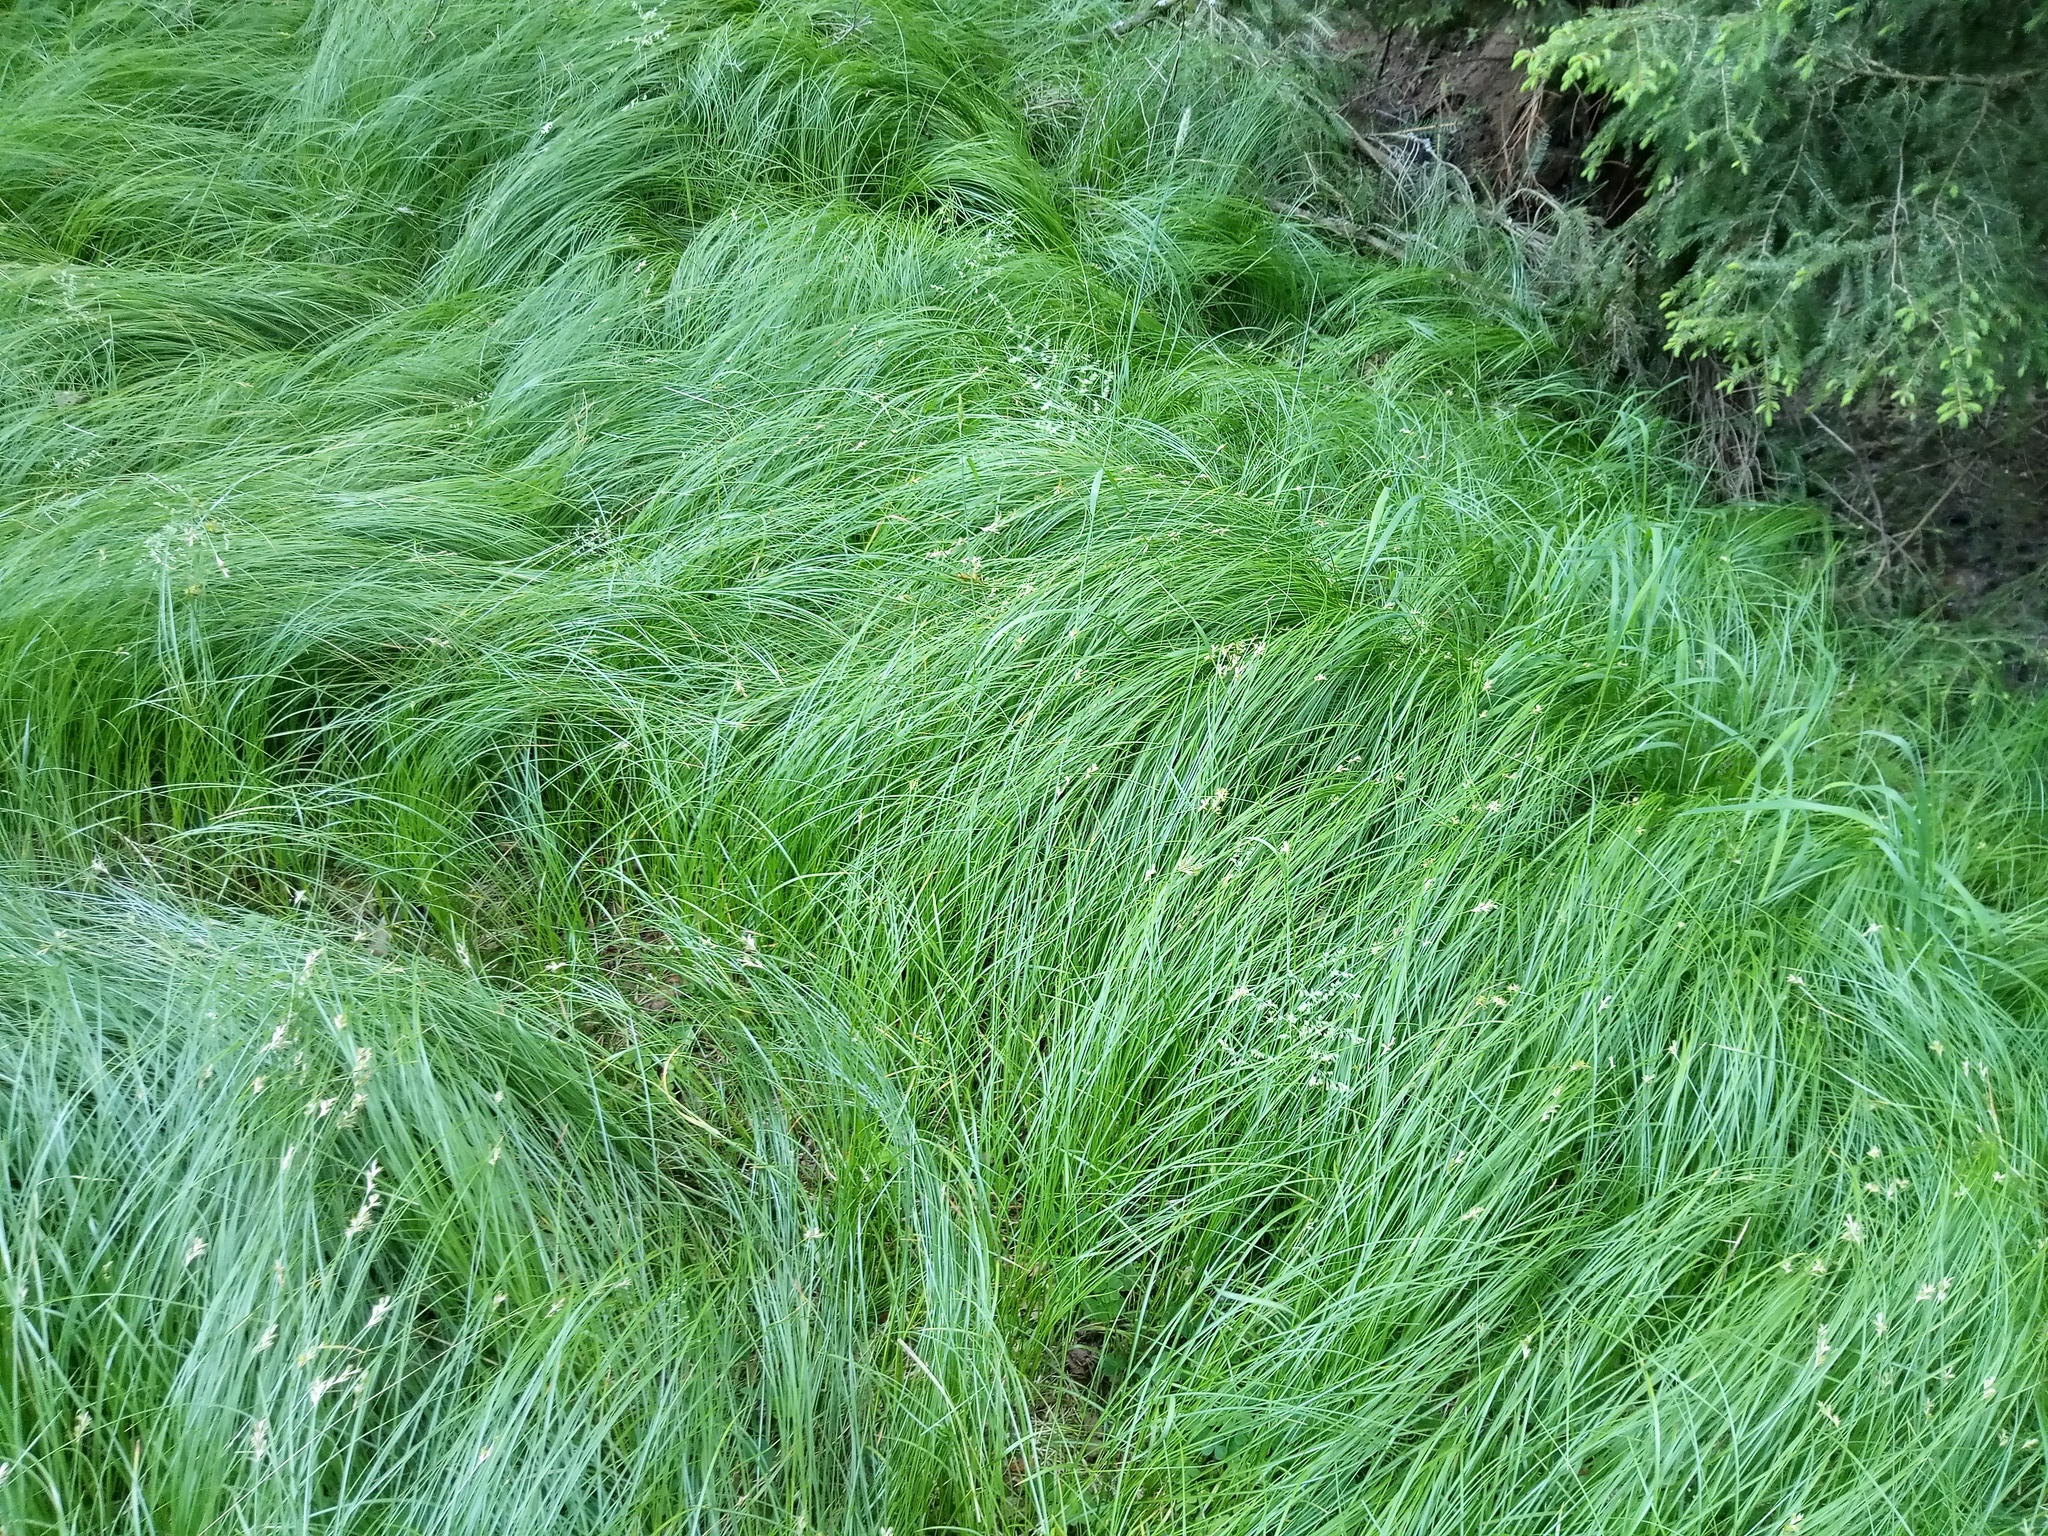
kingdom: Plantae
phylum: Tracheophyta
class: Liliopsida
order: Poales
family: Cyperaceae
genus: Carex
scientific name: Carex brizoides
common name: Quaking-grass sedge
